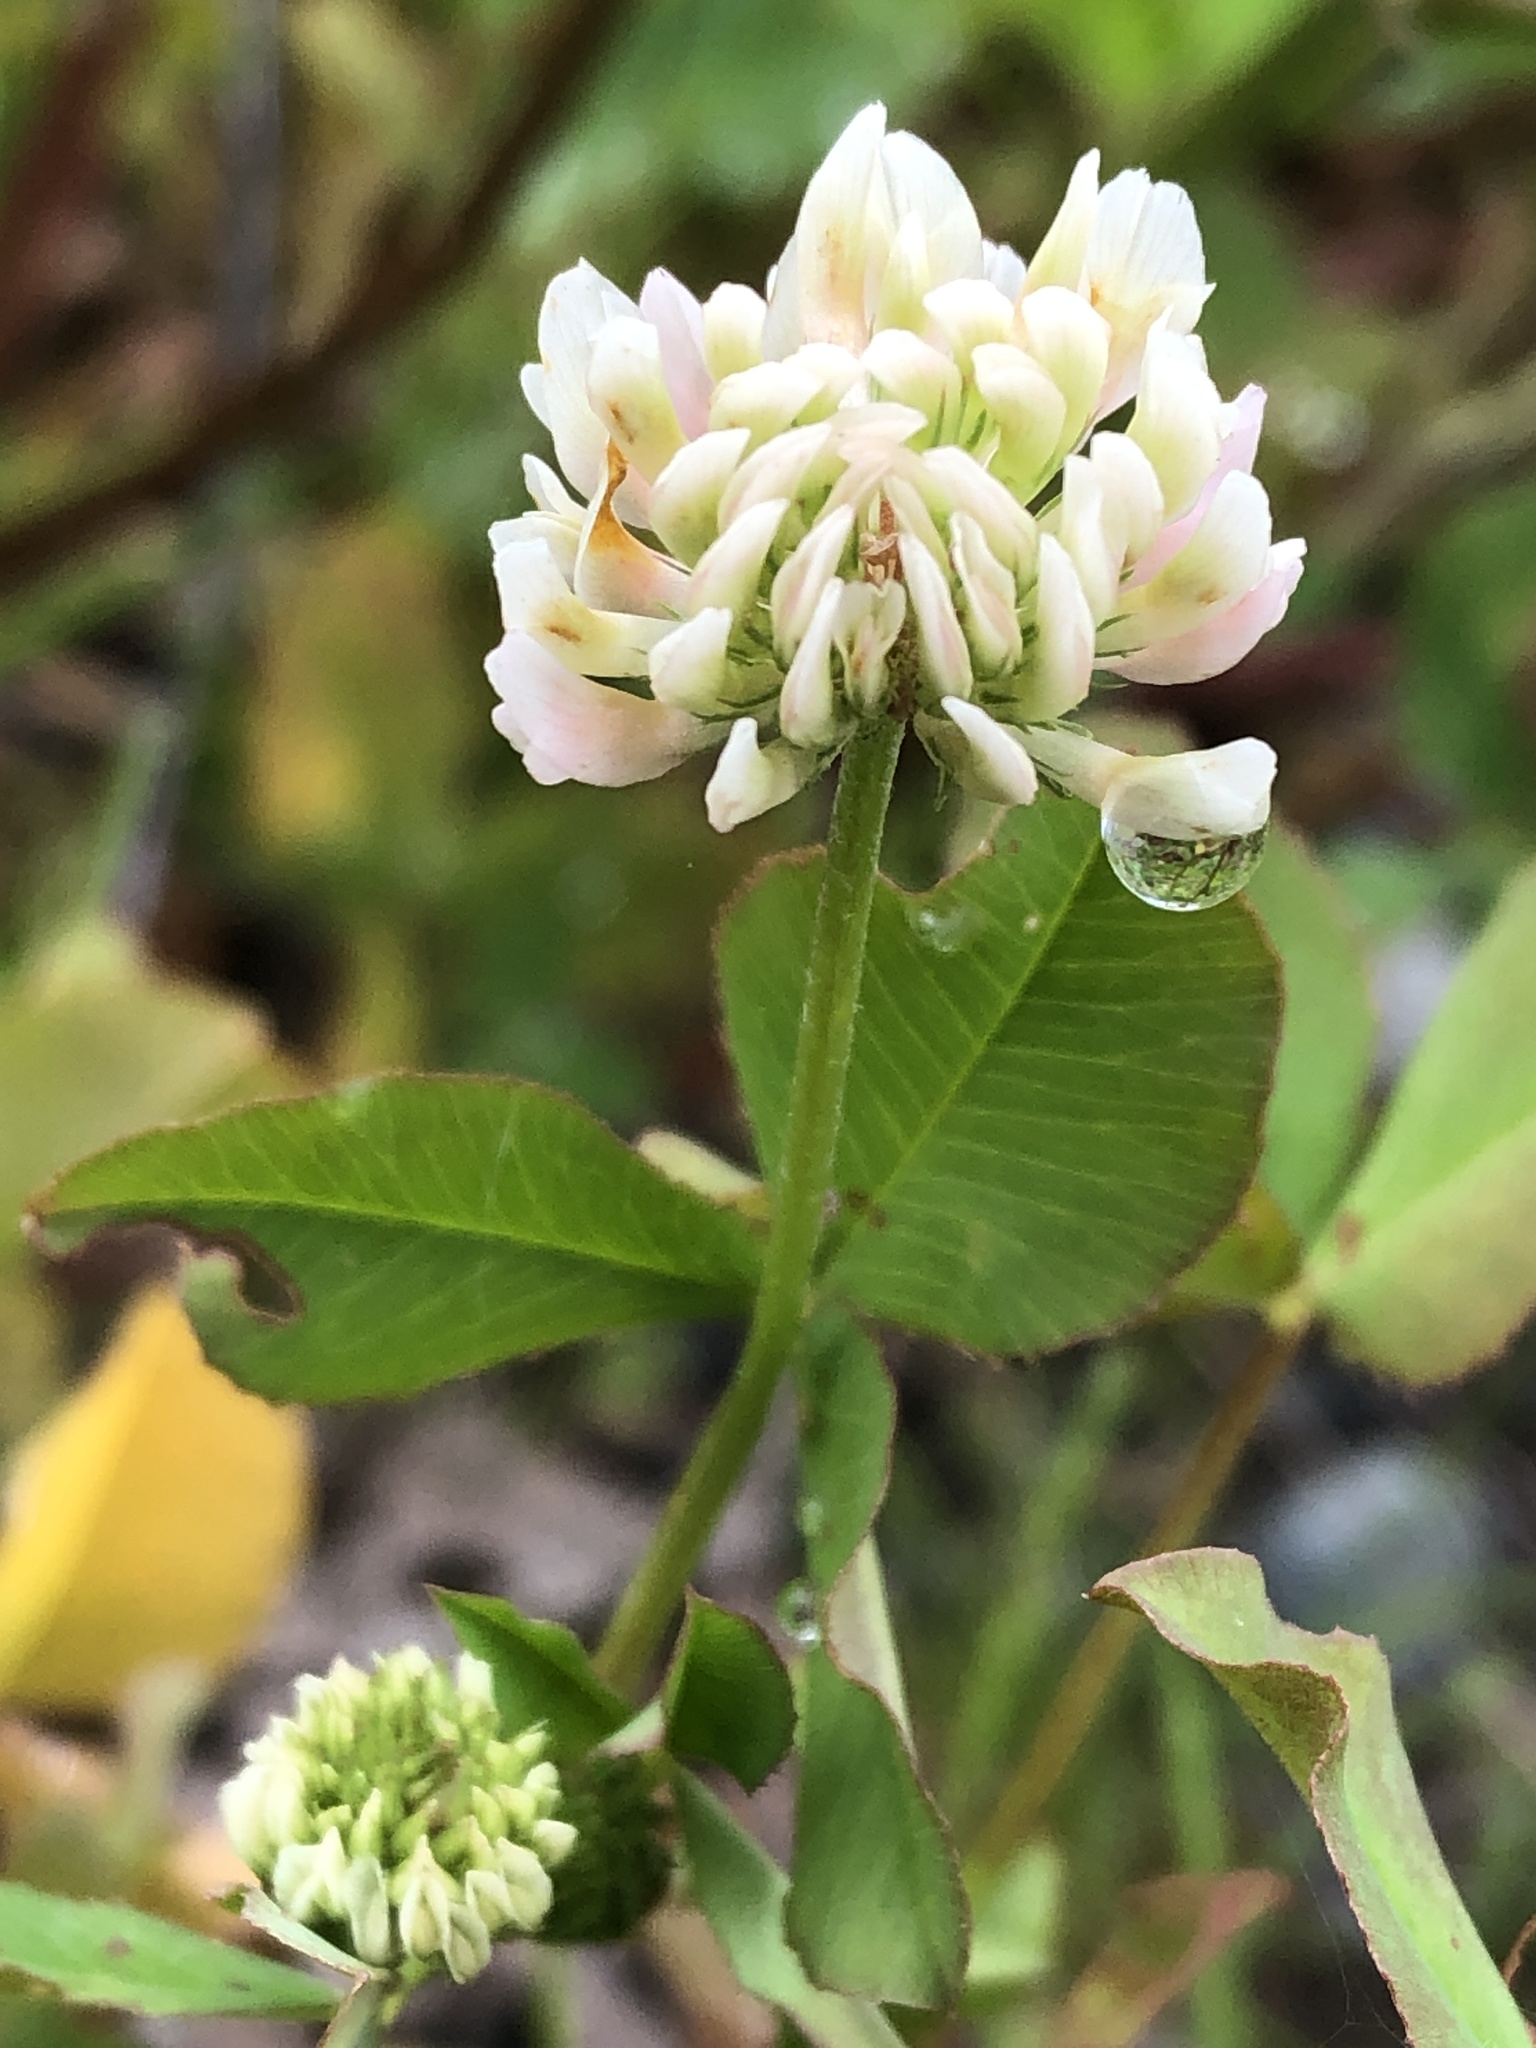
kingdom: Plantae
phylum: Tracheophyta
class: Magnoliopsida
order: Fabales
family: Fabaceae
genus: Trifolium
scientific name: Trifolium hybridum
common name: Alsike clover
